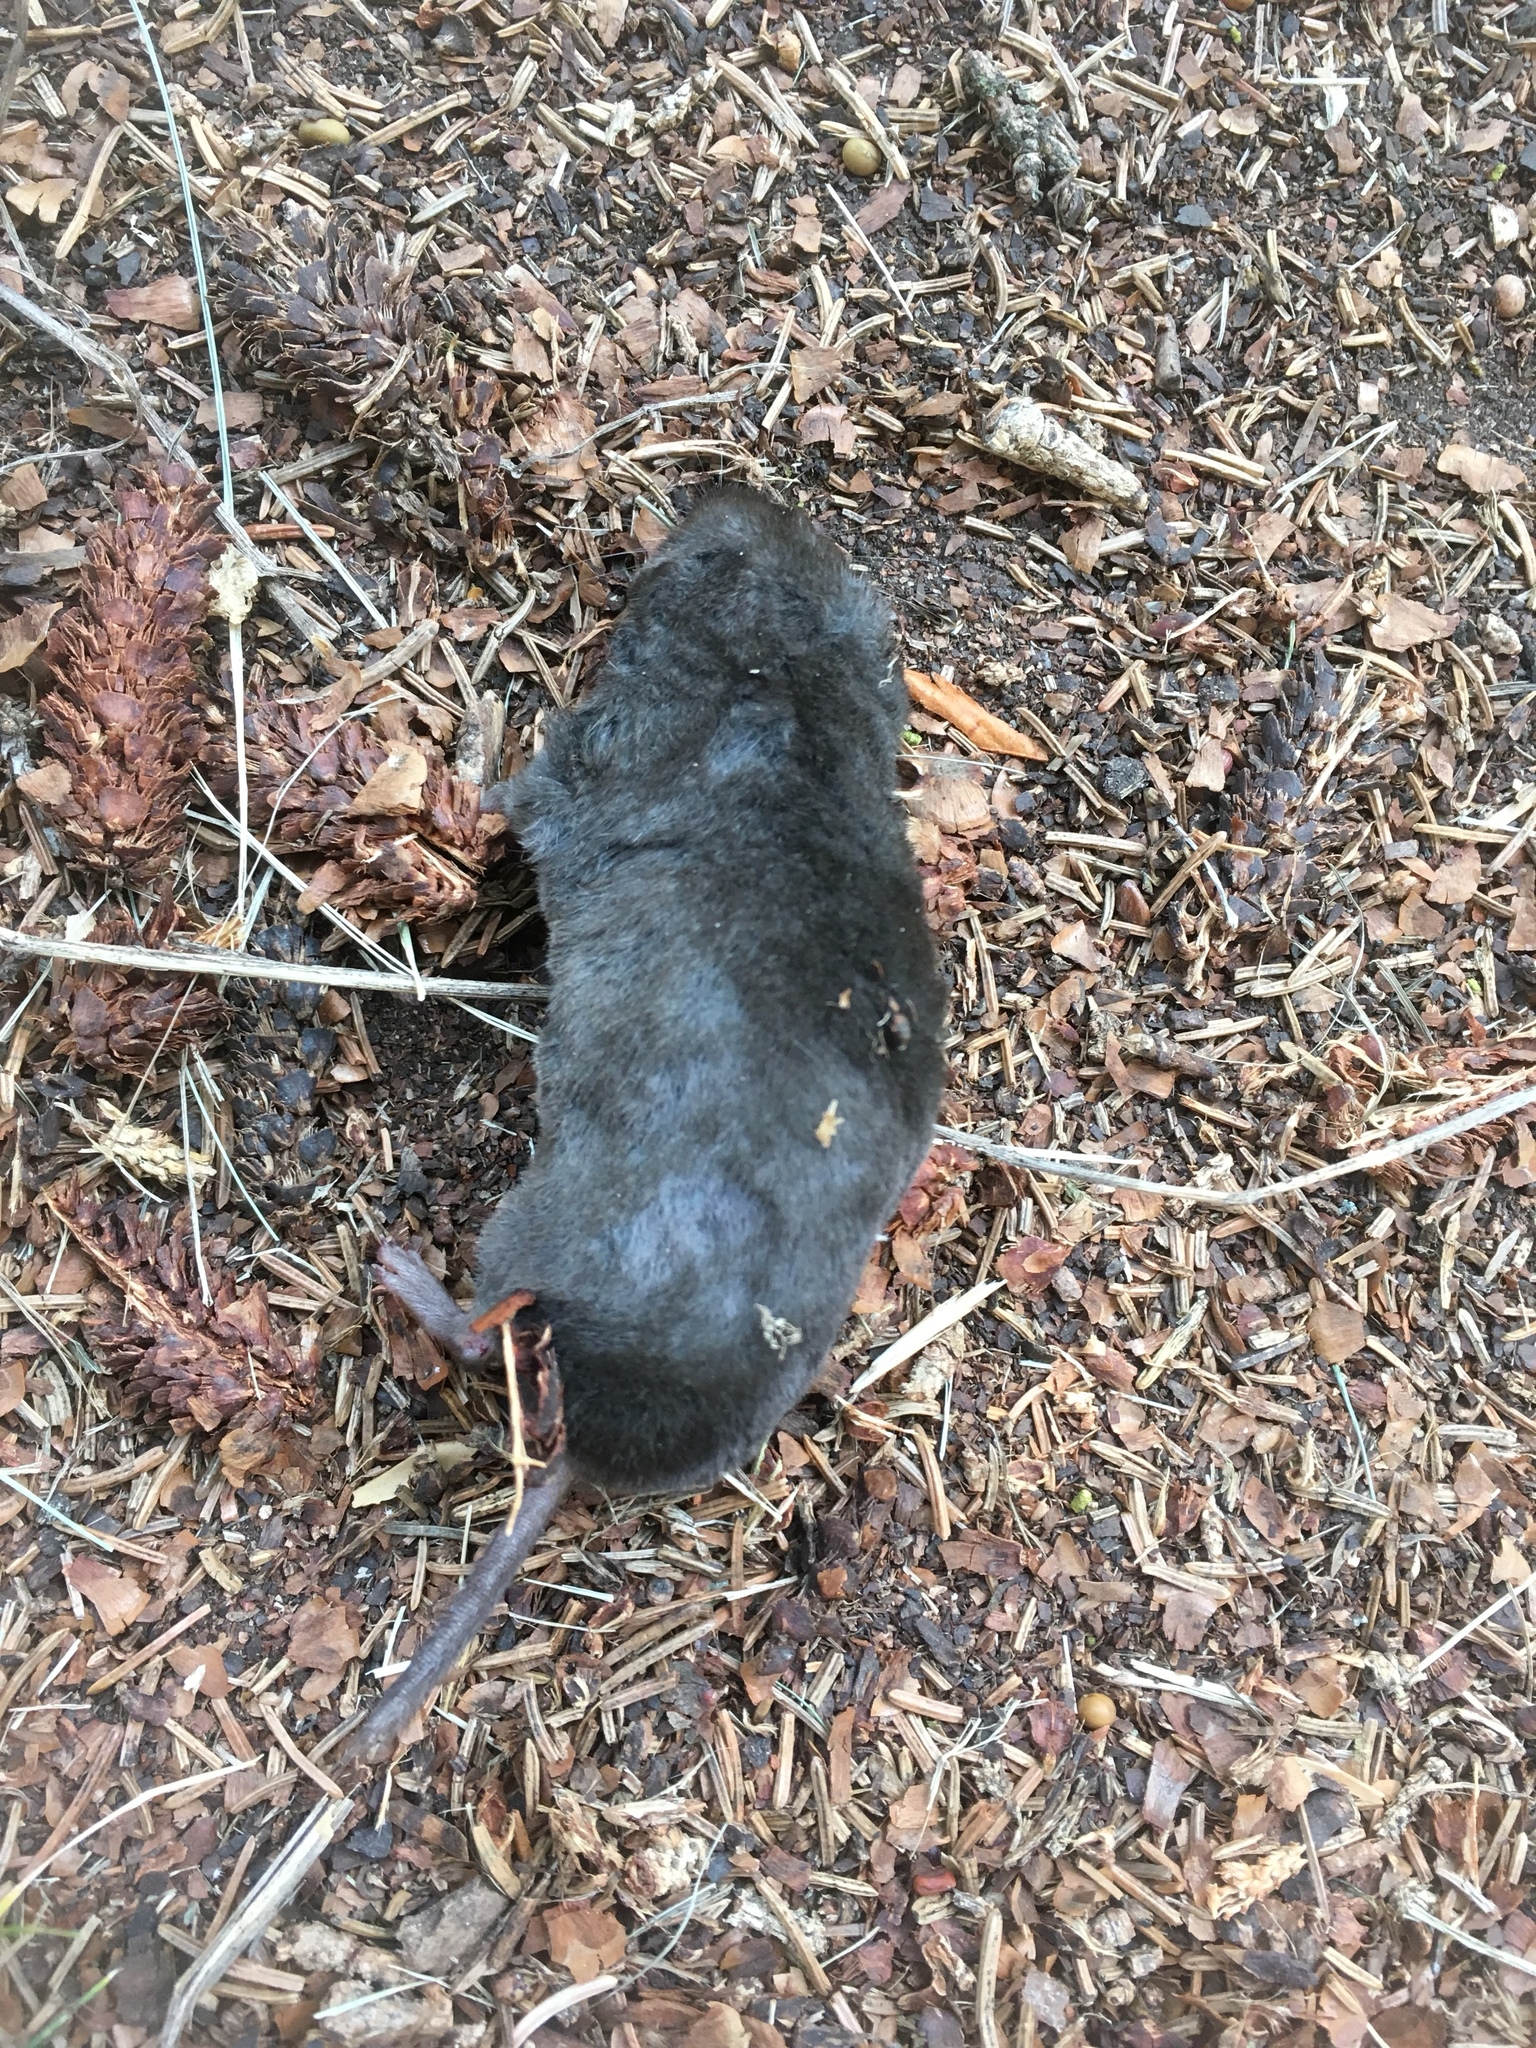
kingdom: Animalia
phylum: Chordata
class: Mammalia
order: Soricomorpha
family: Soricidae
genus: Blarina
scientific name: Blarina brevicauda
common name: Northern short-tailed shrew
